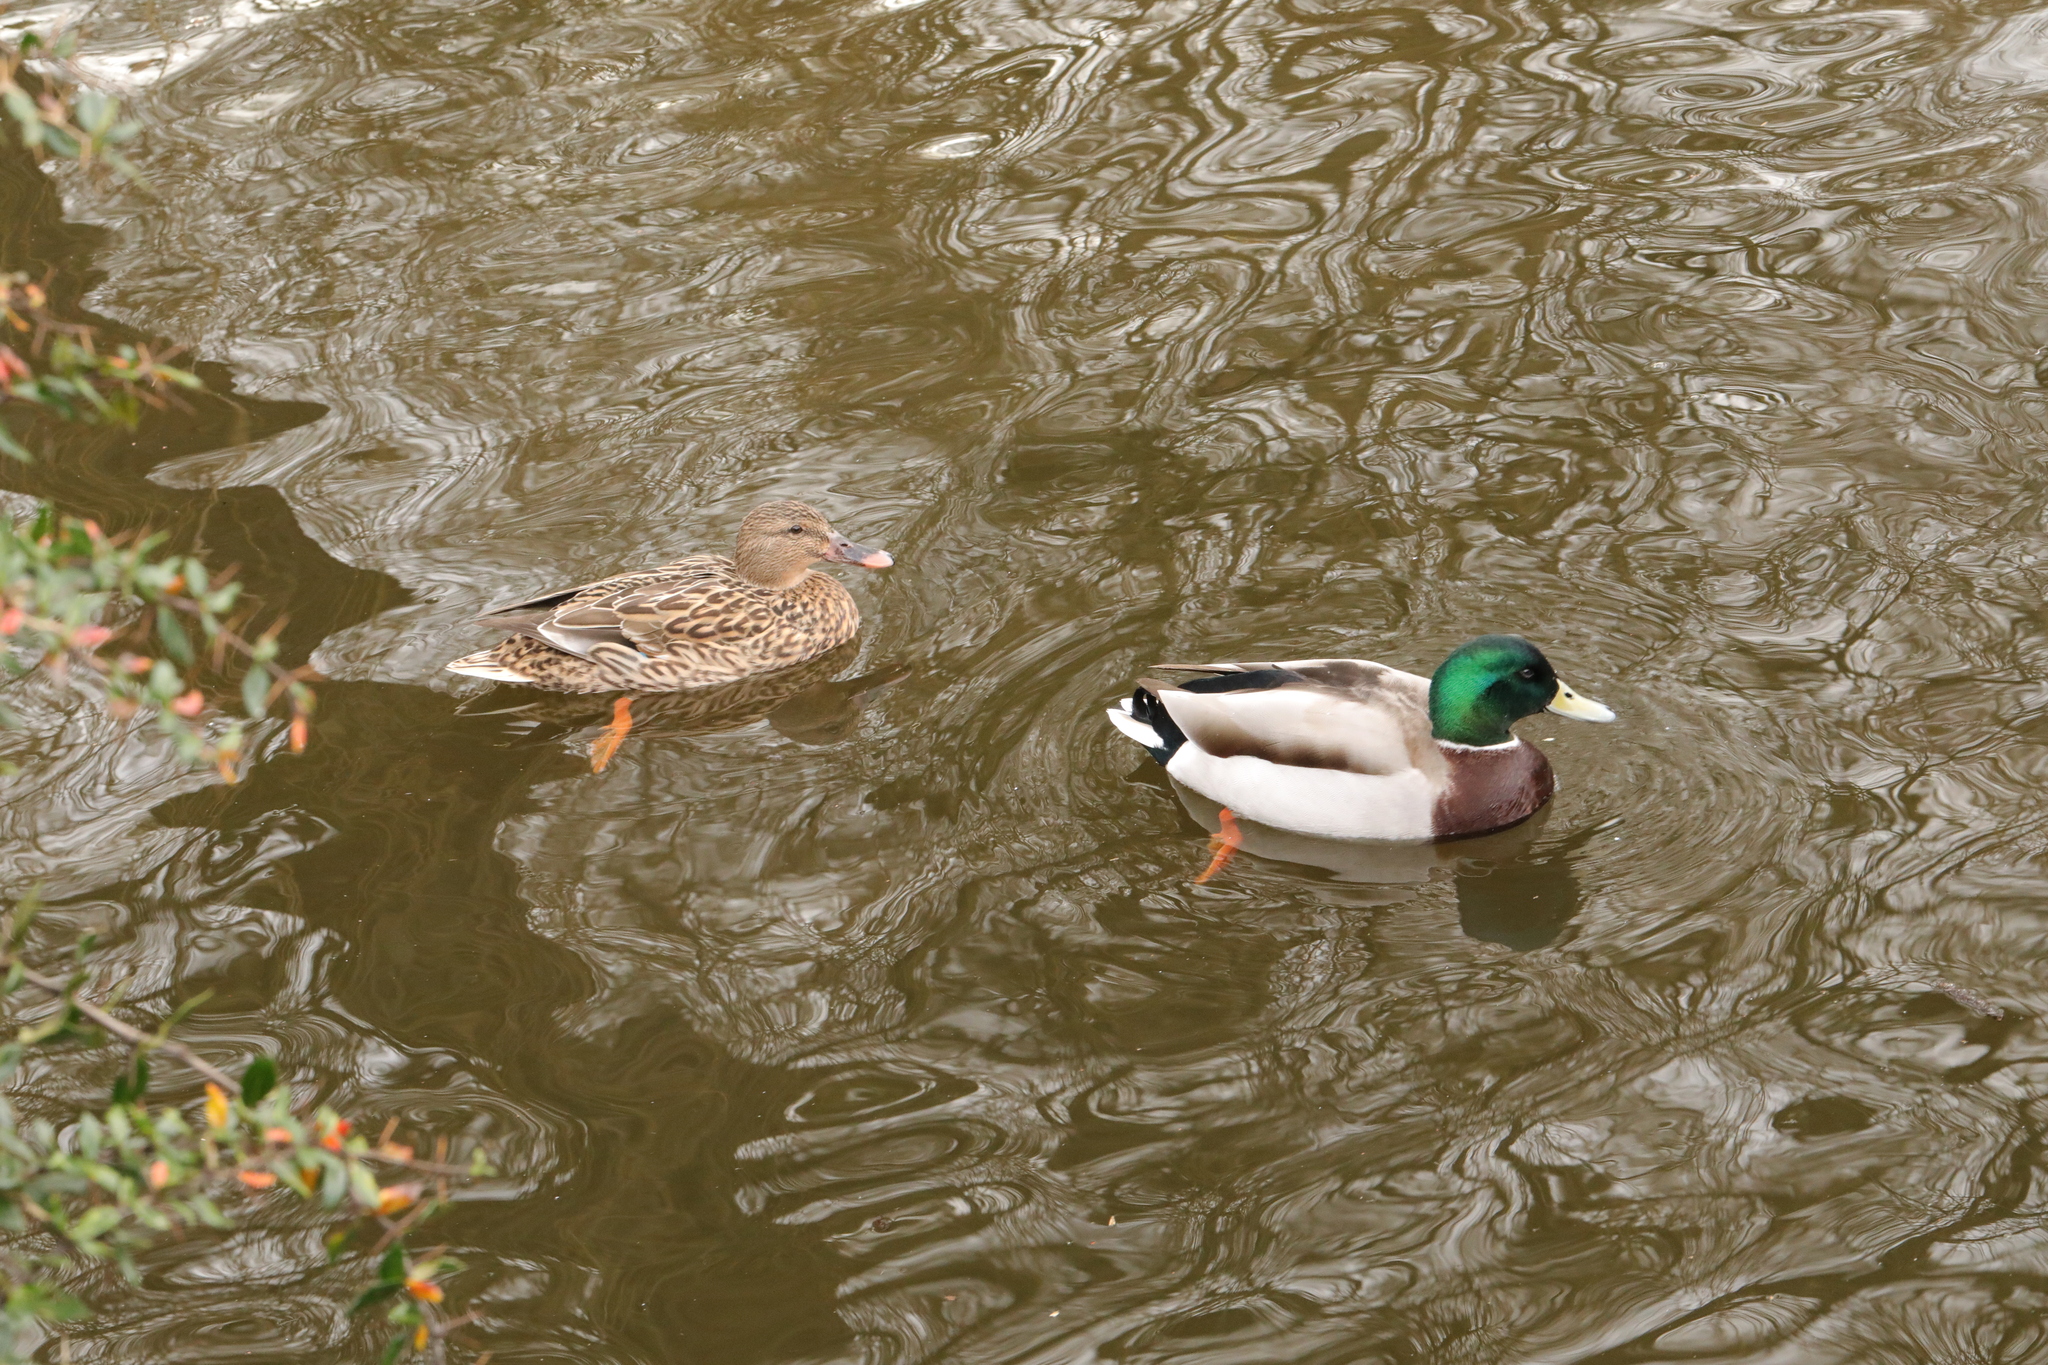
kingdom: Animalia
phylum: Chordata
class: Aves
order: Anseriformes
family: Anatidae
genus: Anas
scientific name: Anas platyrhynchos
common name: Mallard
